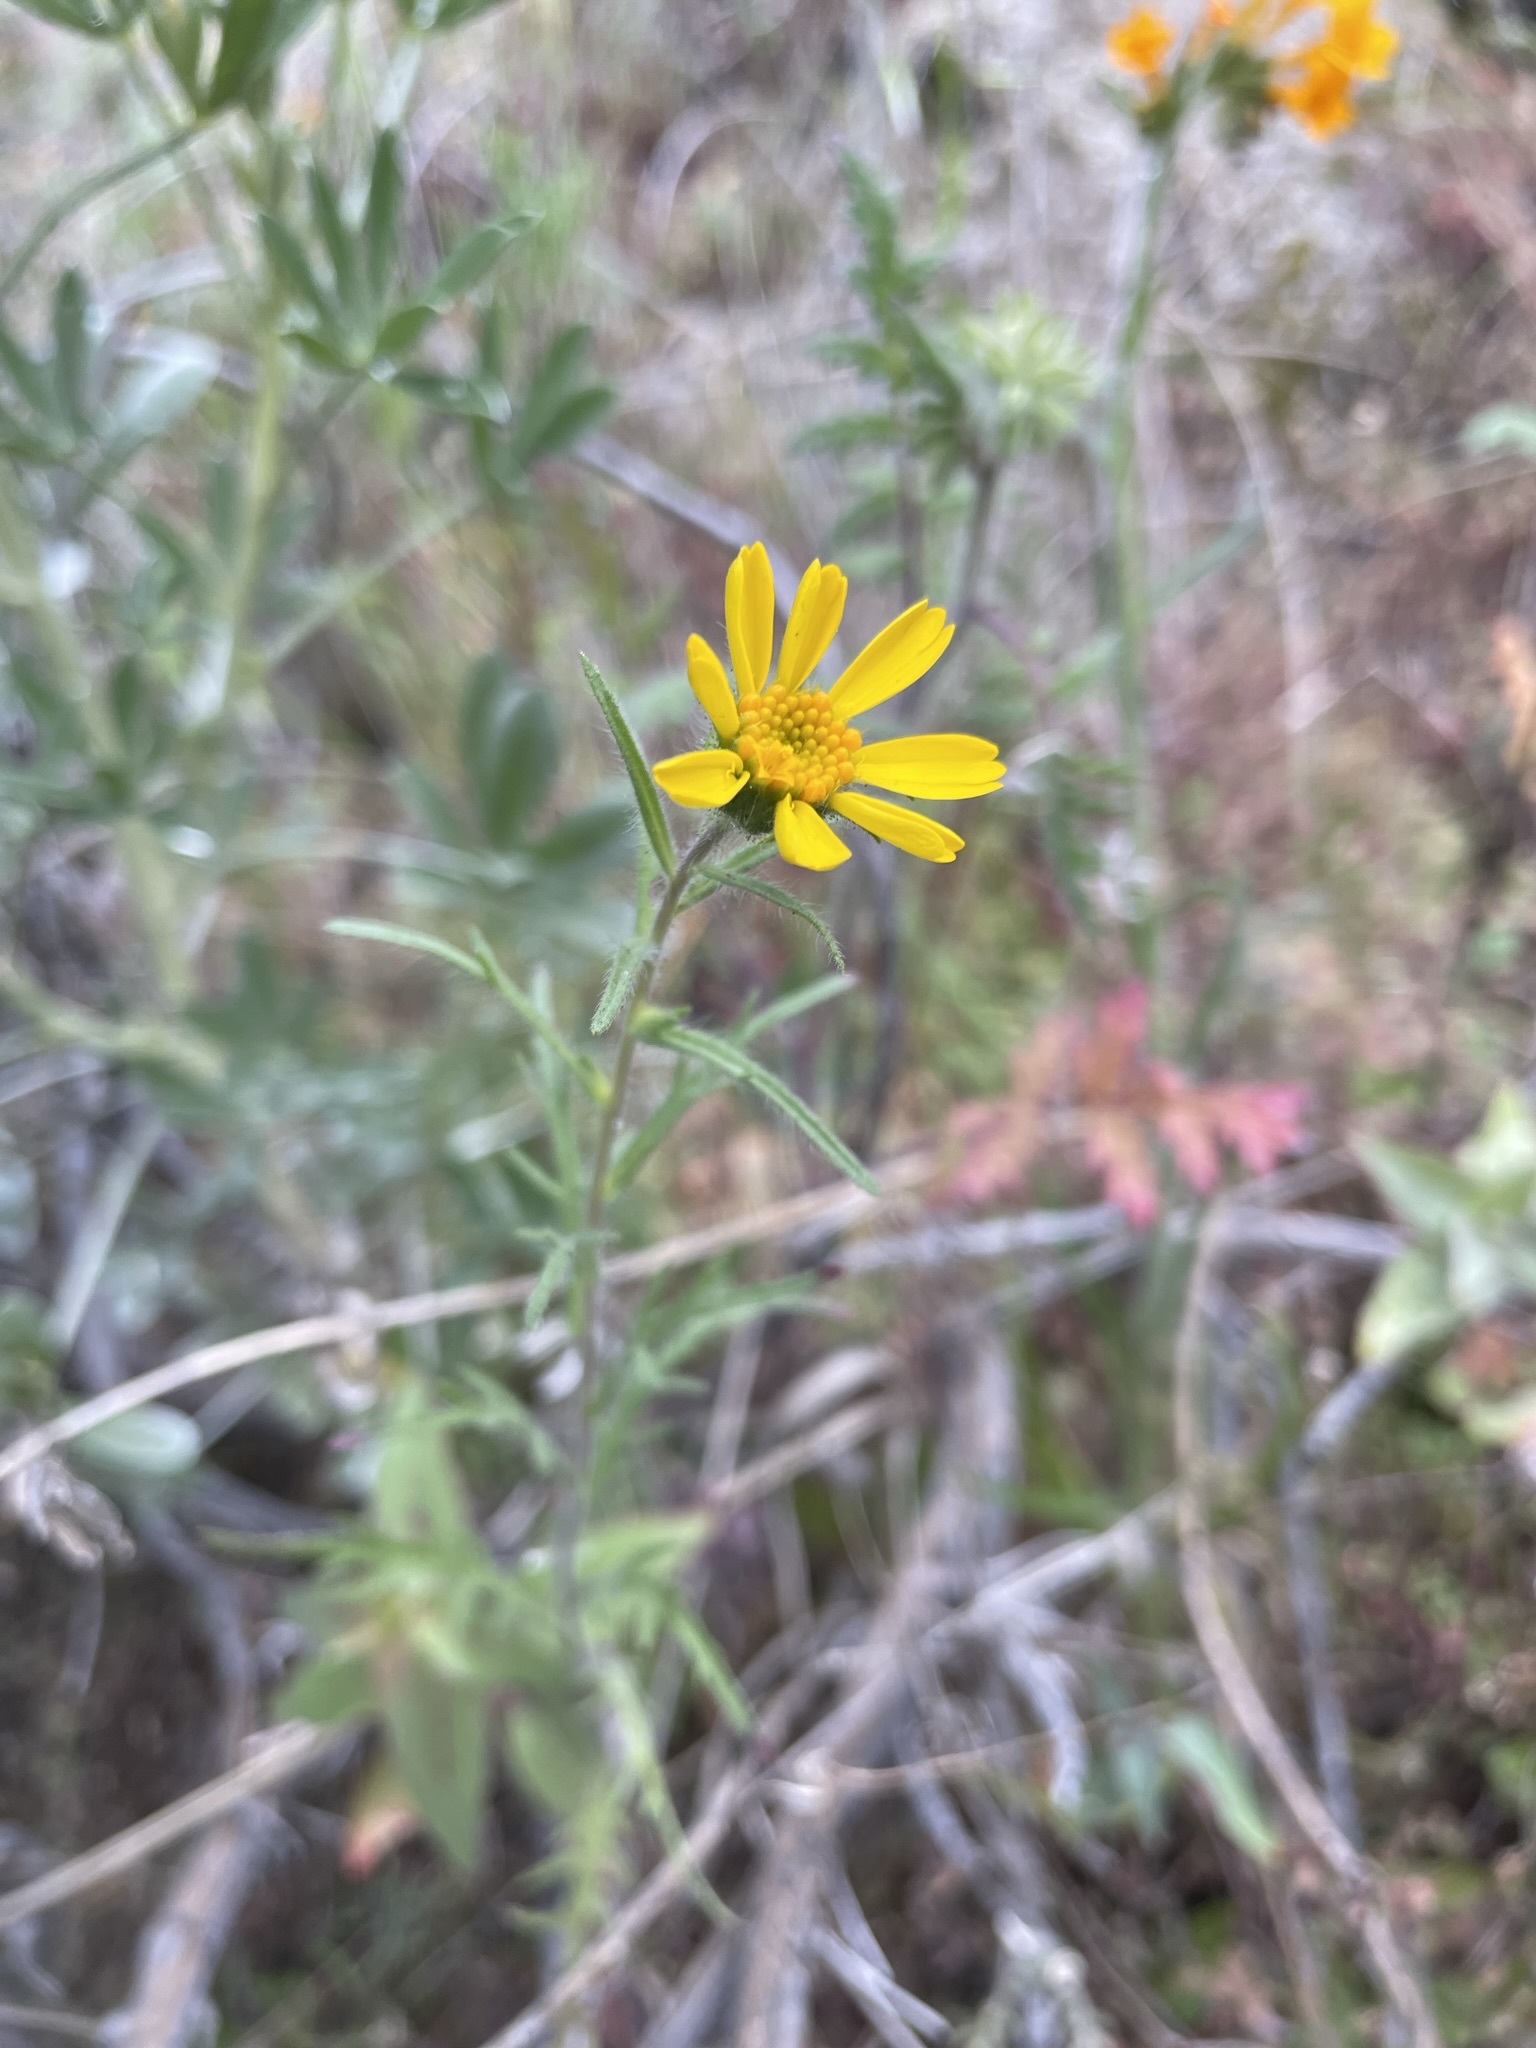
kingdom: Plantae
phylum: Tracheophyta
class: Magnoliopsida
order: Asterales
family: Asteraceae
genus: Layia
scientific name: Layia pentachaeta
